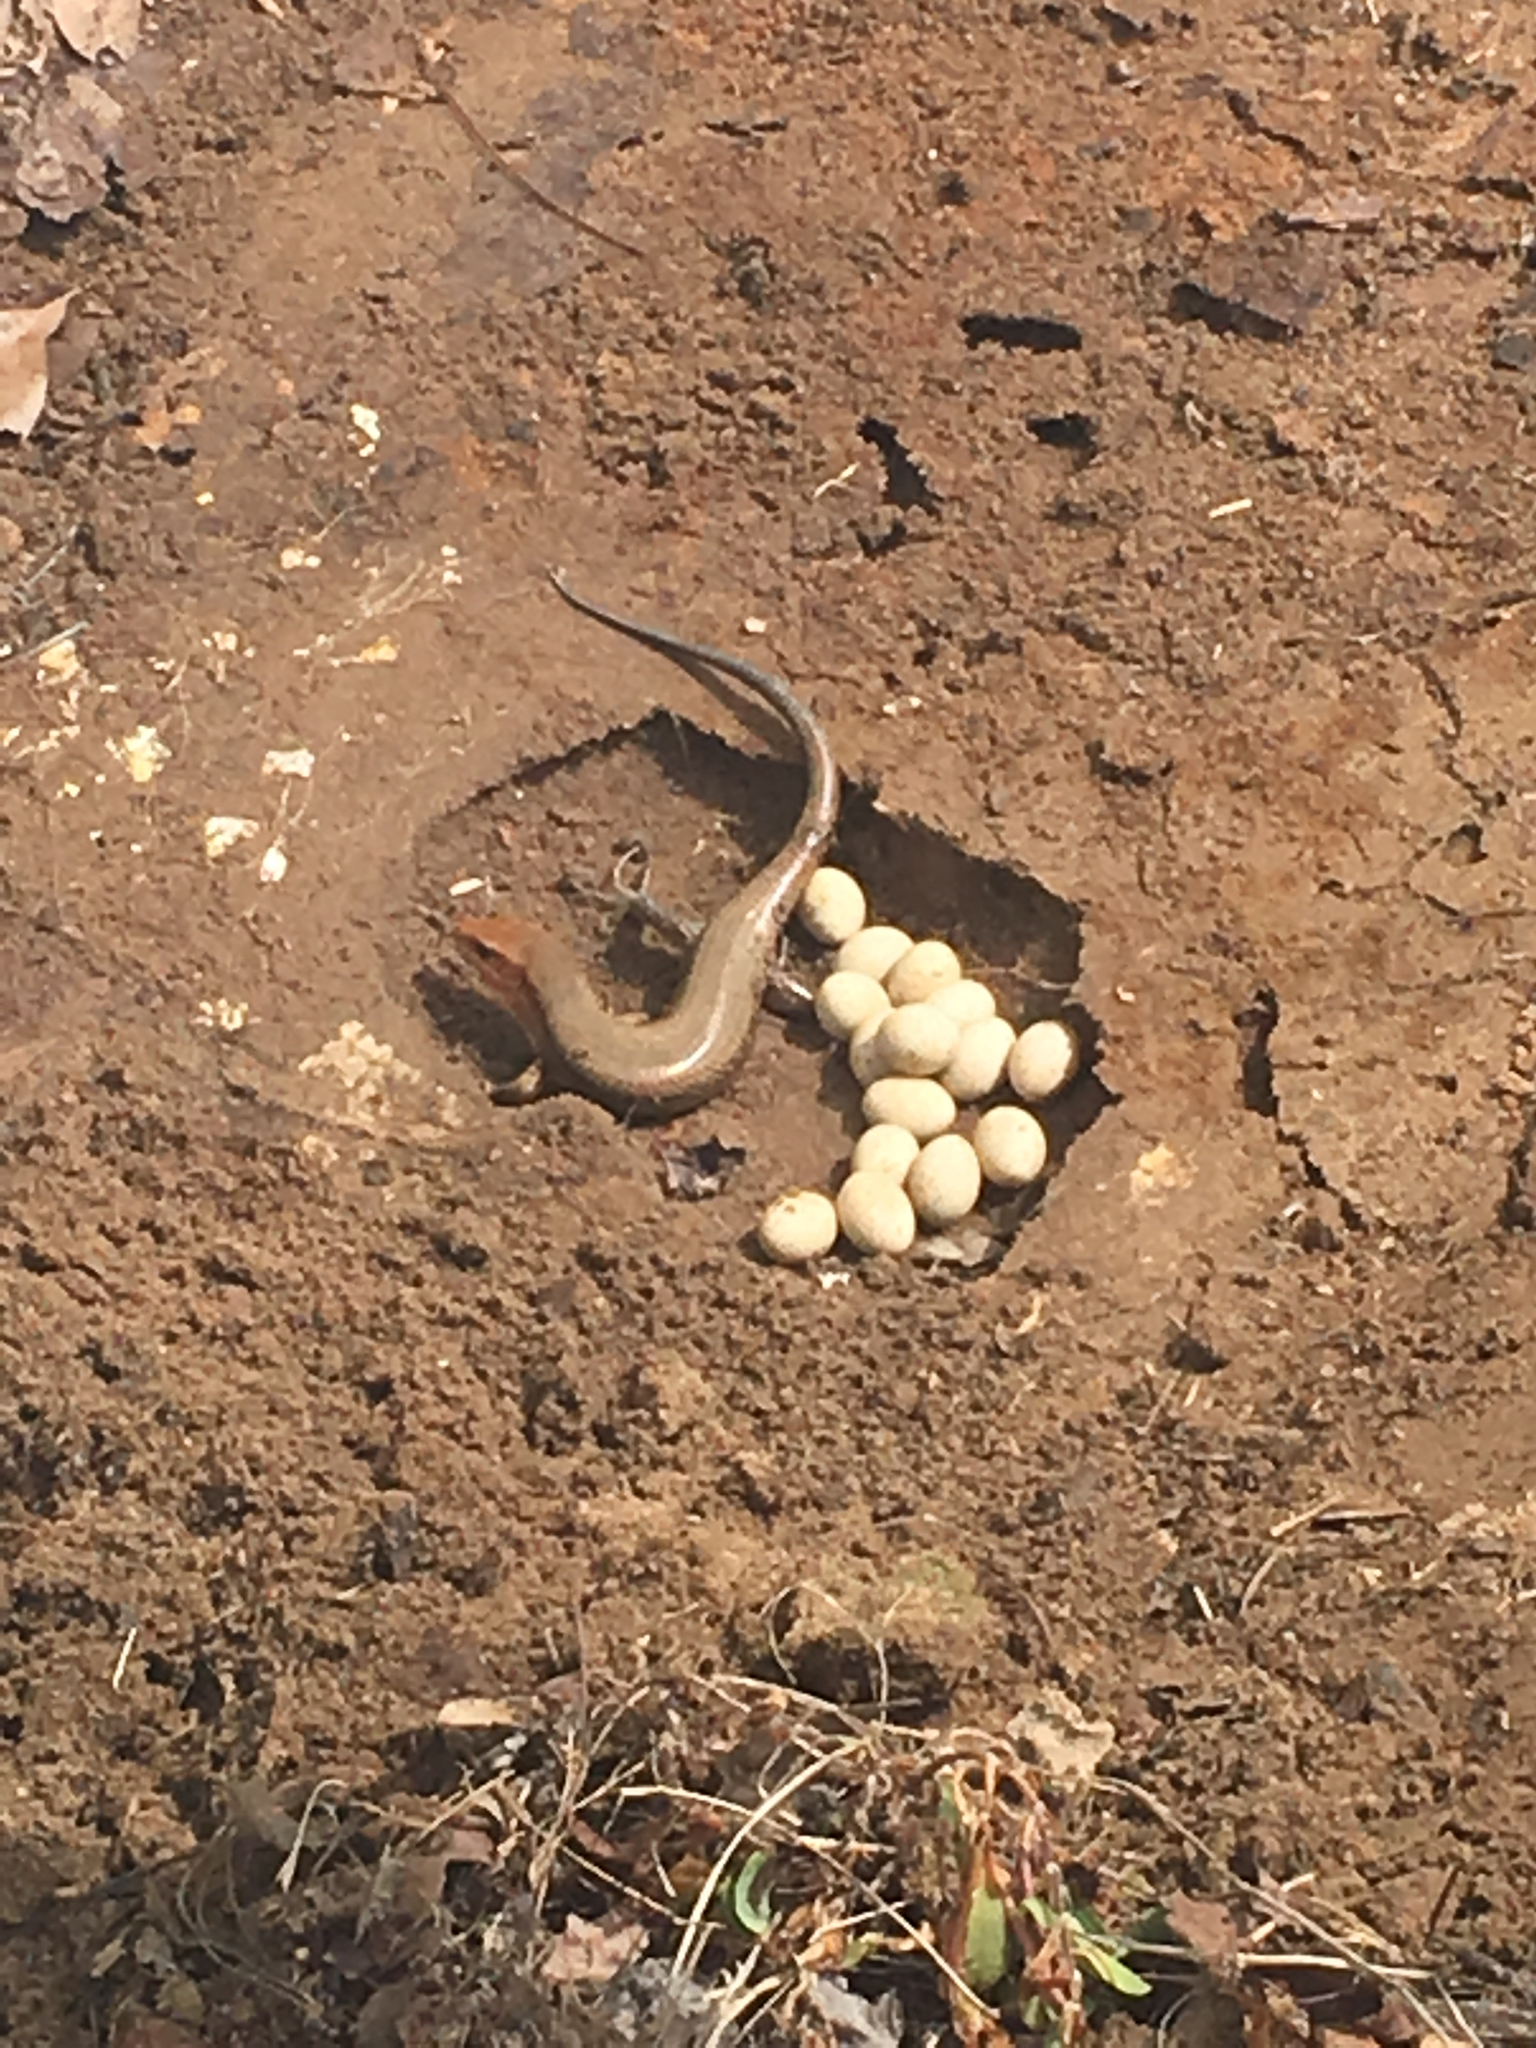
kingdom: Animalia
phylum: Chordata
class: Squamata
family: Scincidae
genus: Plestiodon
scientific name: Plestiodon laticeps
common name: Broadhead skink
